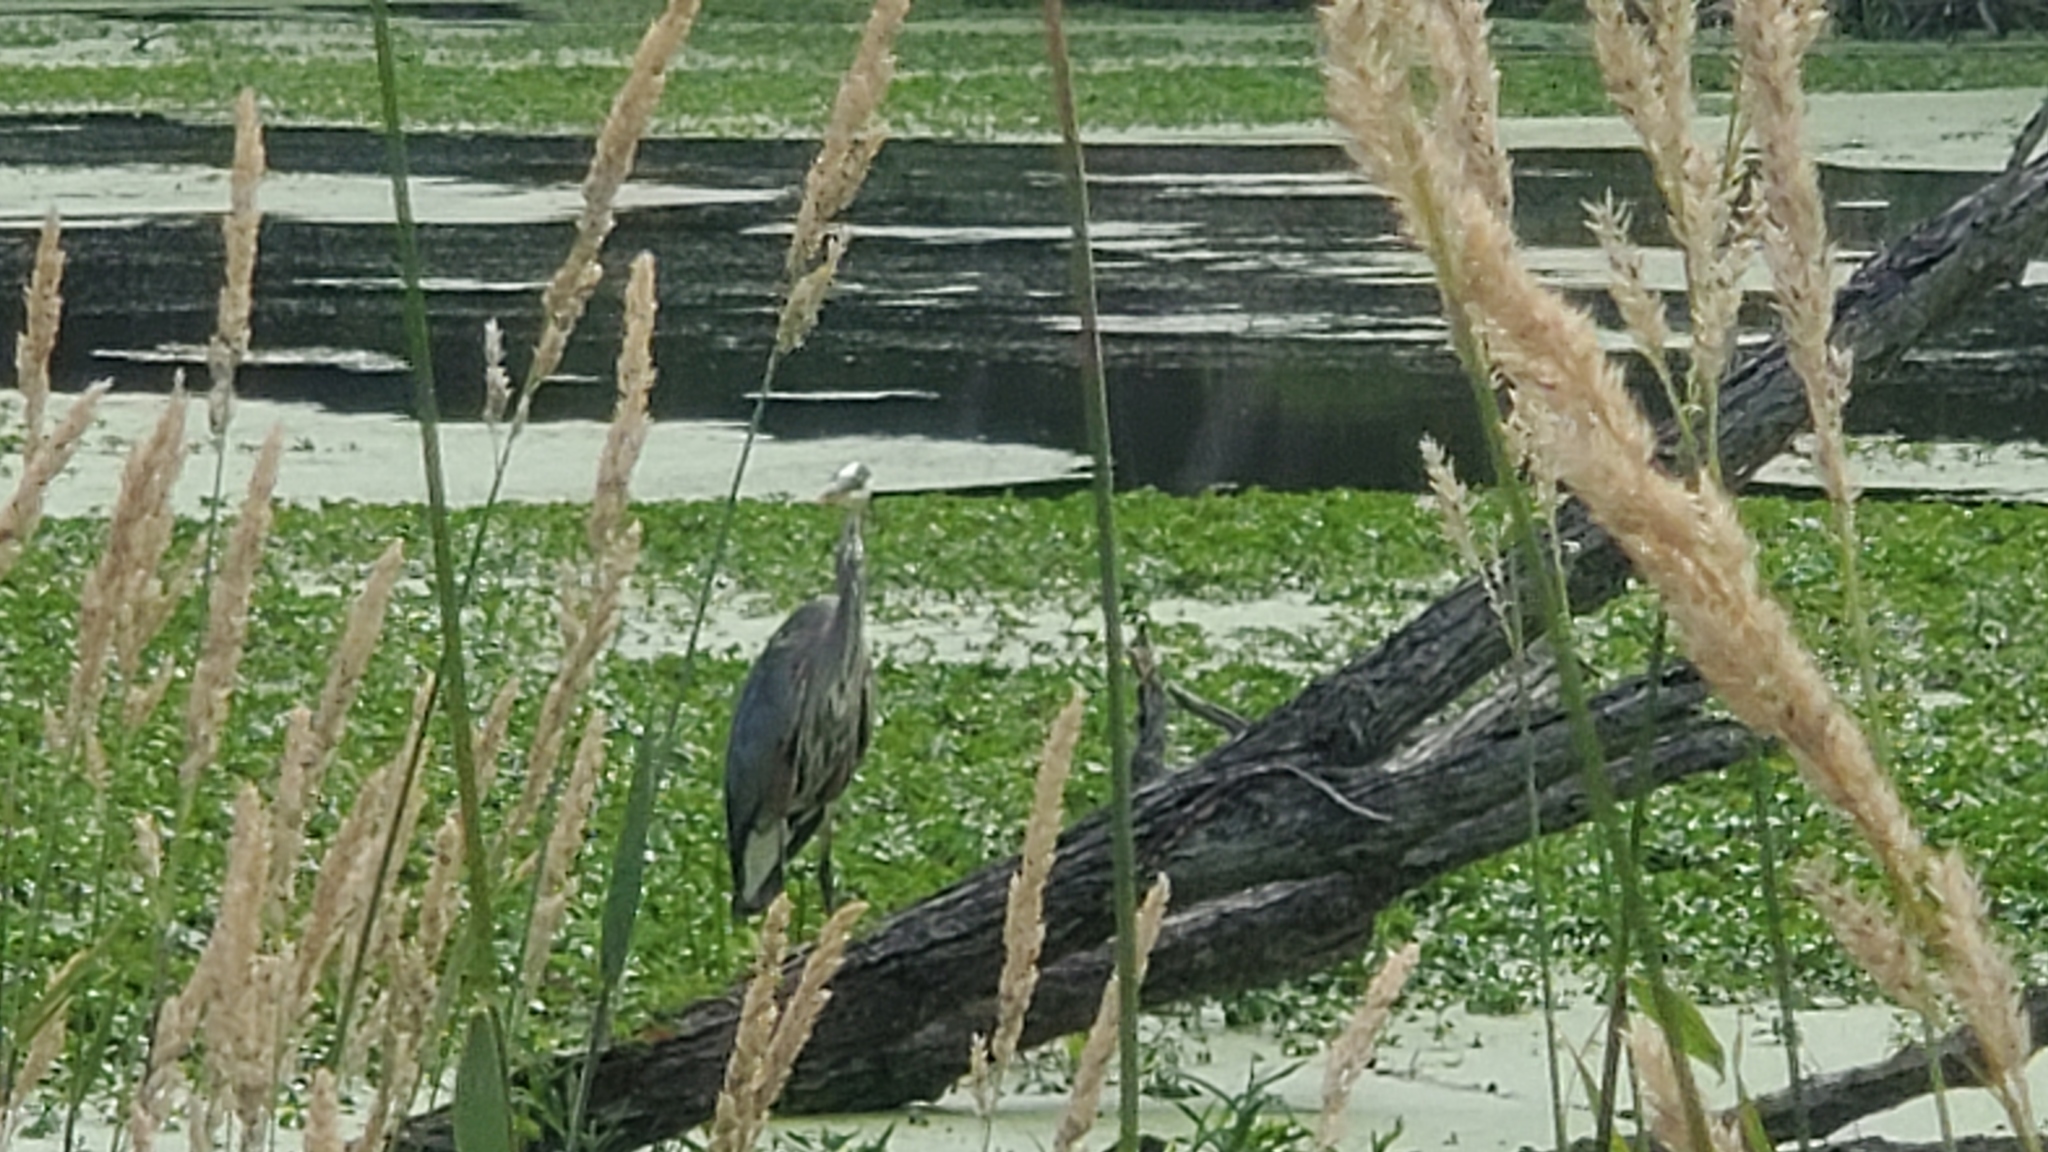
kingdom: Animalia
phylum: Chordata
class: Aves
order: Pelecaniformes
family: Ardeidae
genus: Ardea
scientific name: Ardea herodias
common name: Great blue heron
